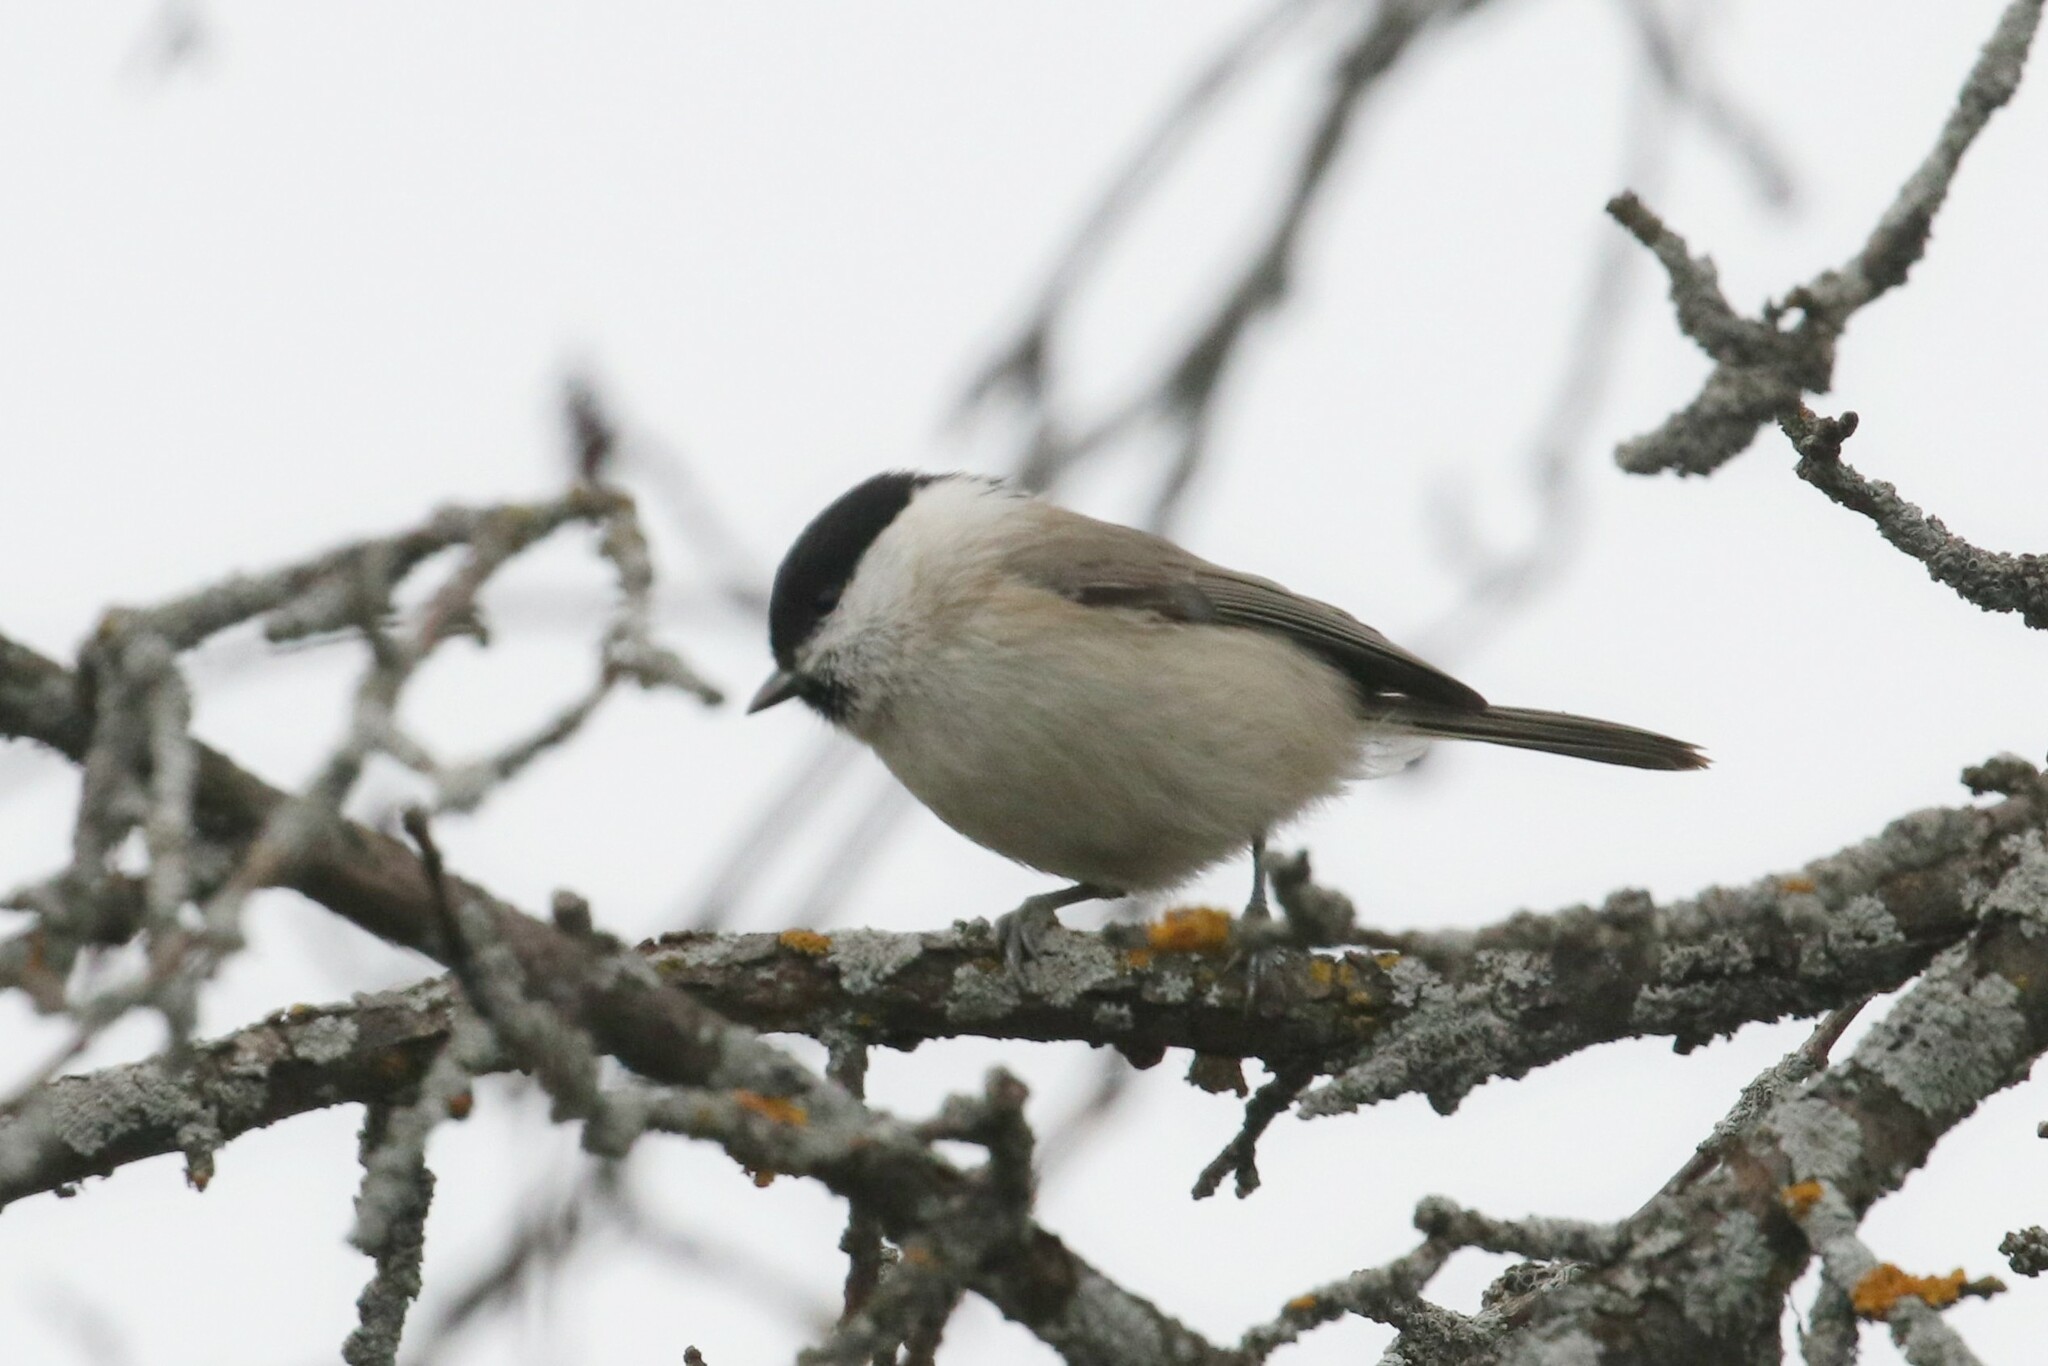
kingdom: Animalia
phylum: Chordata
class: Aves
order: Passeriformes
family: Paridae
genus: Poecile
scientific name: Poecile palustris
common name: Marsh tit
